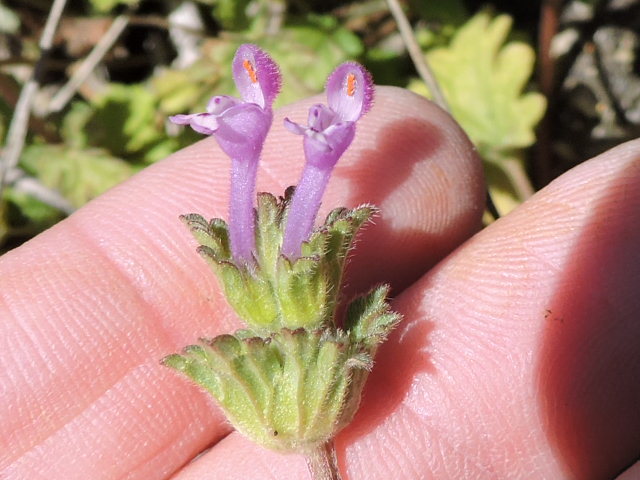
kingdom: Plantae
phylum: Tracheophyta
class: Magnoliopsida
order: Lamiales
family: Lamiaceae
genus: Lamium
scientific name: Lamium amplexicaule
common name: Henbit dead-nettle
